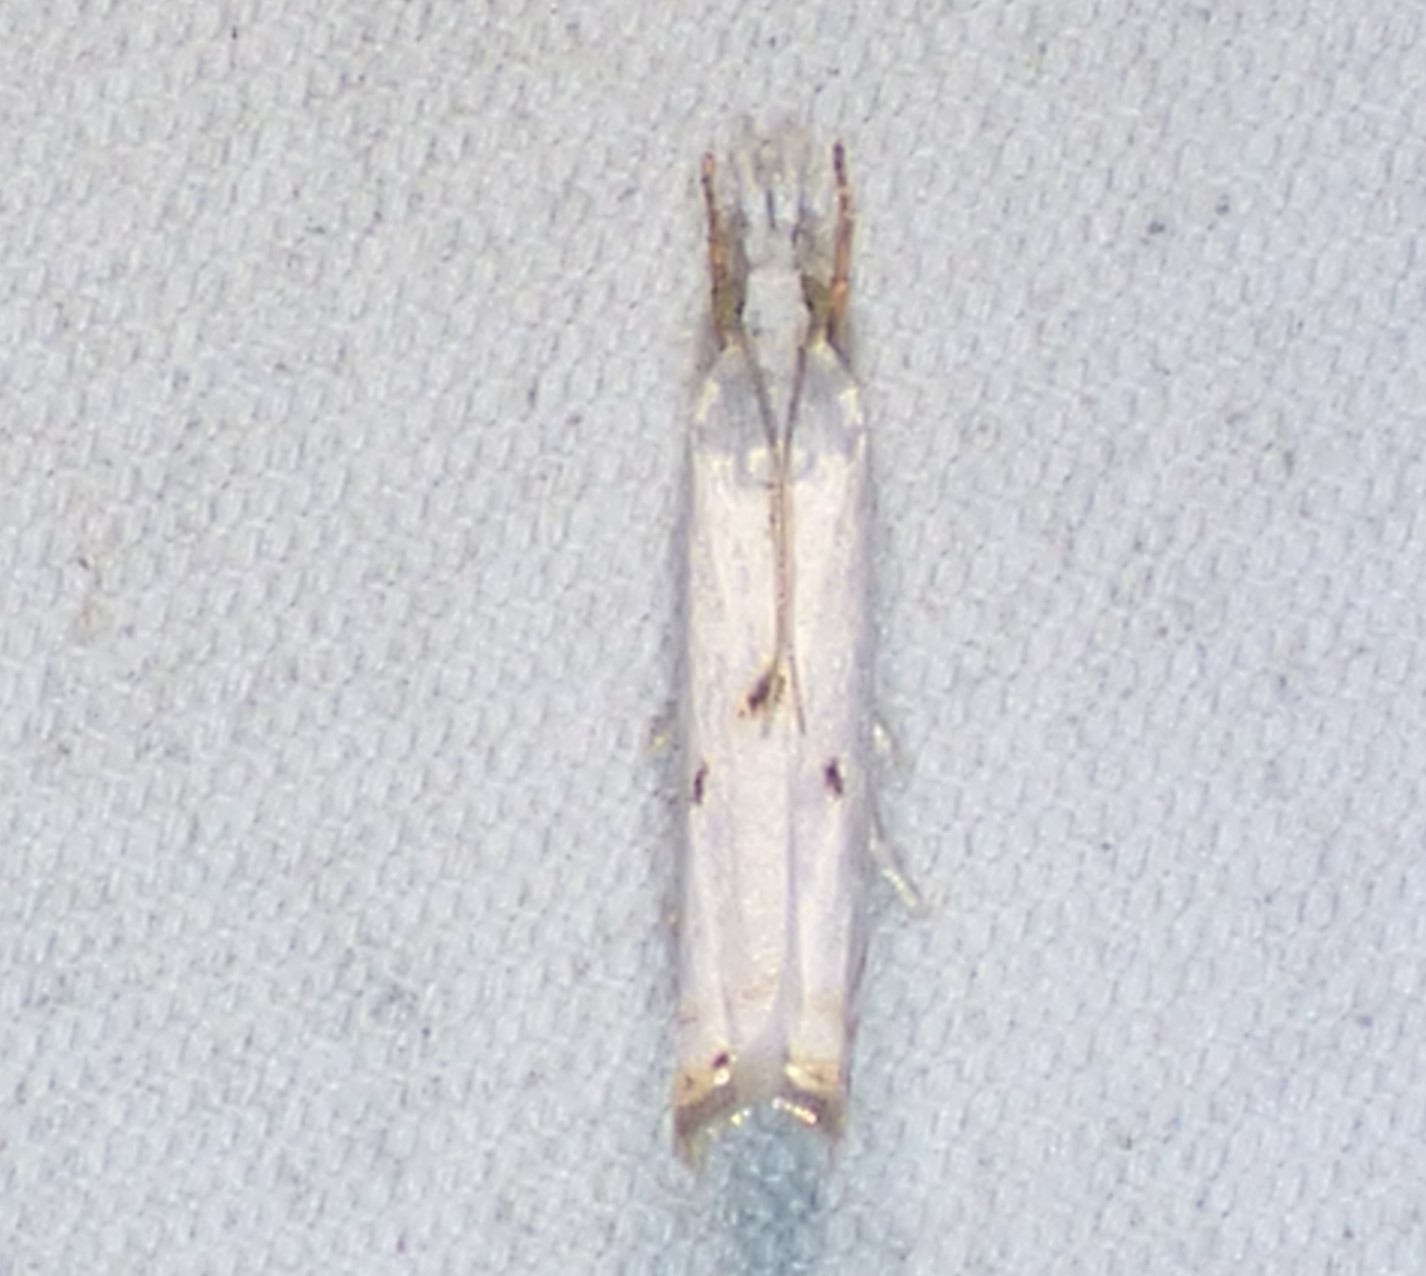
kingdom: Animalia
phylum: Arthropoda
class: Insecta
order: Lepidoptera
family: Crambidae
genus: Microcrambus
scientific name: Microcrambus biguttellus
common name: Gold-stripe grass-veneer moth
